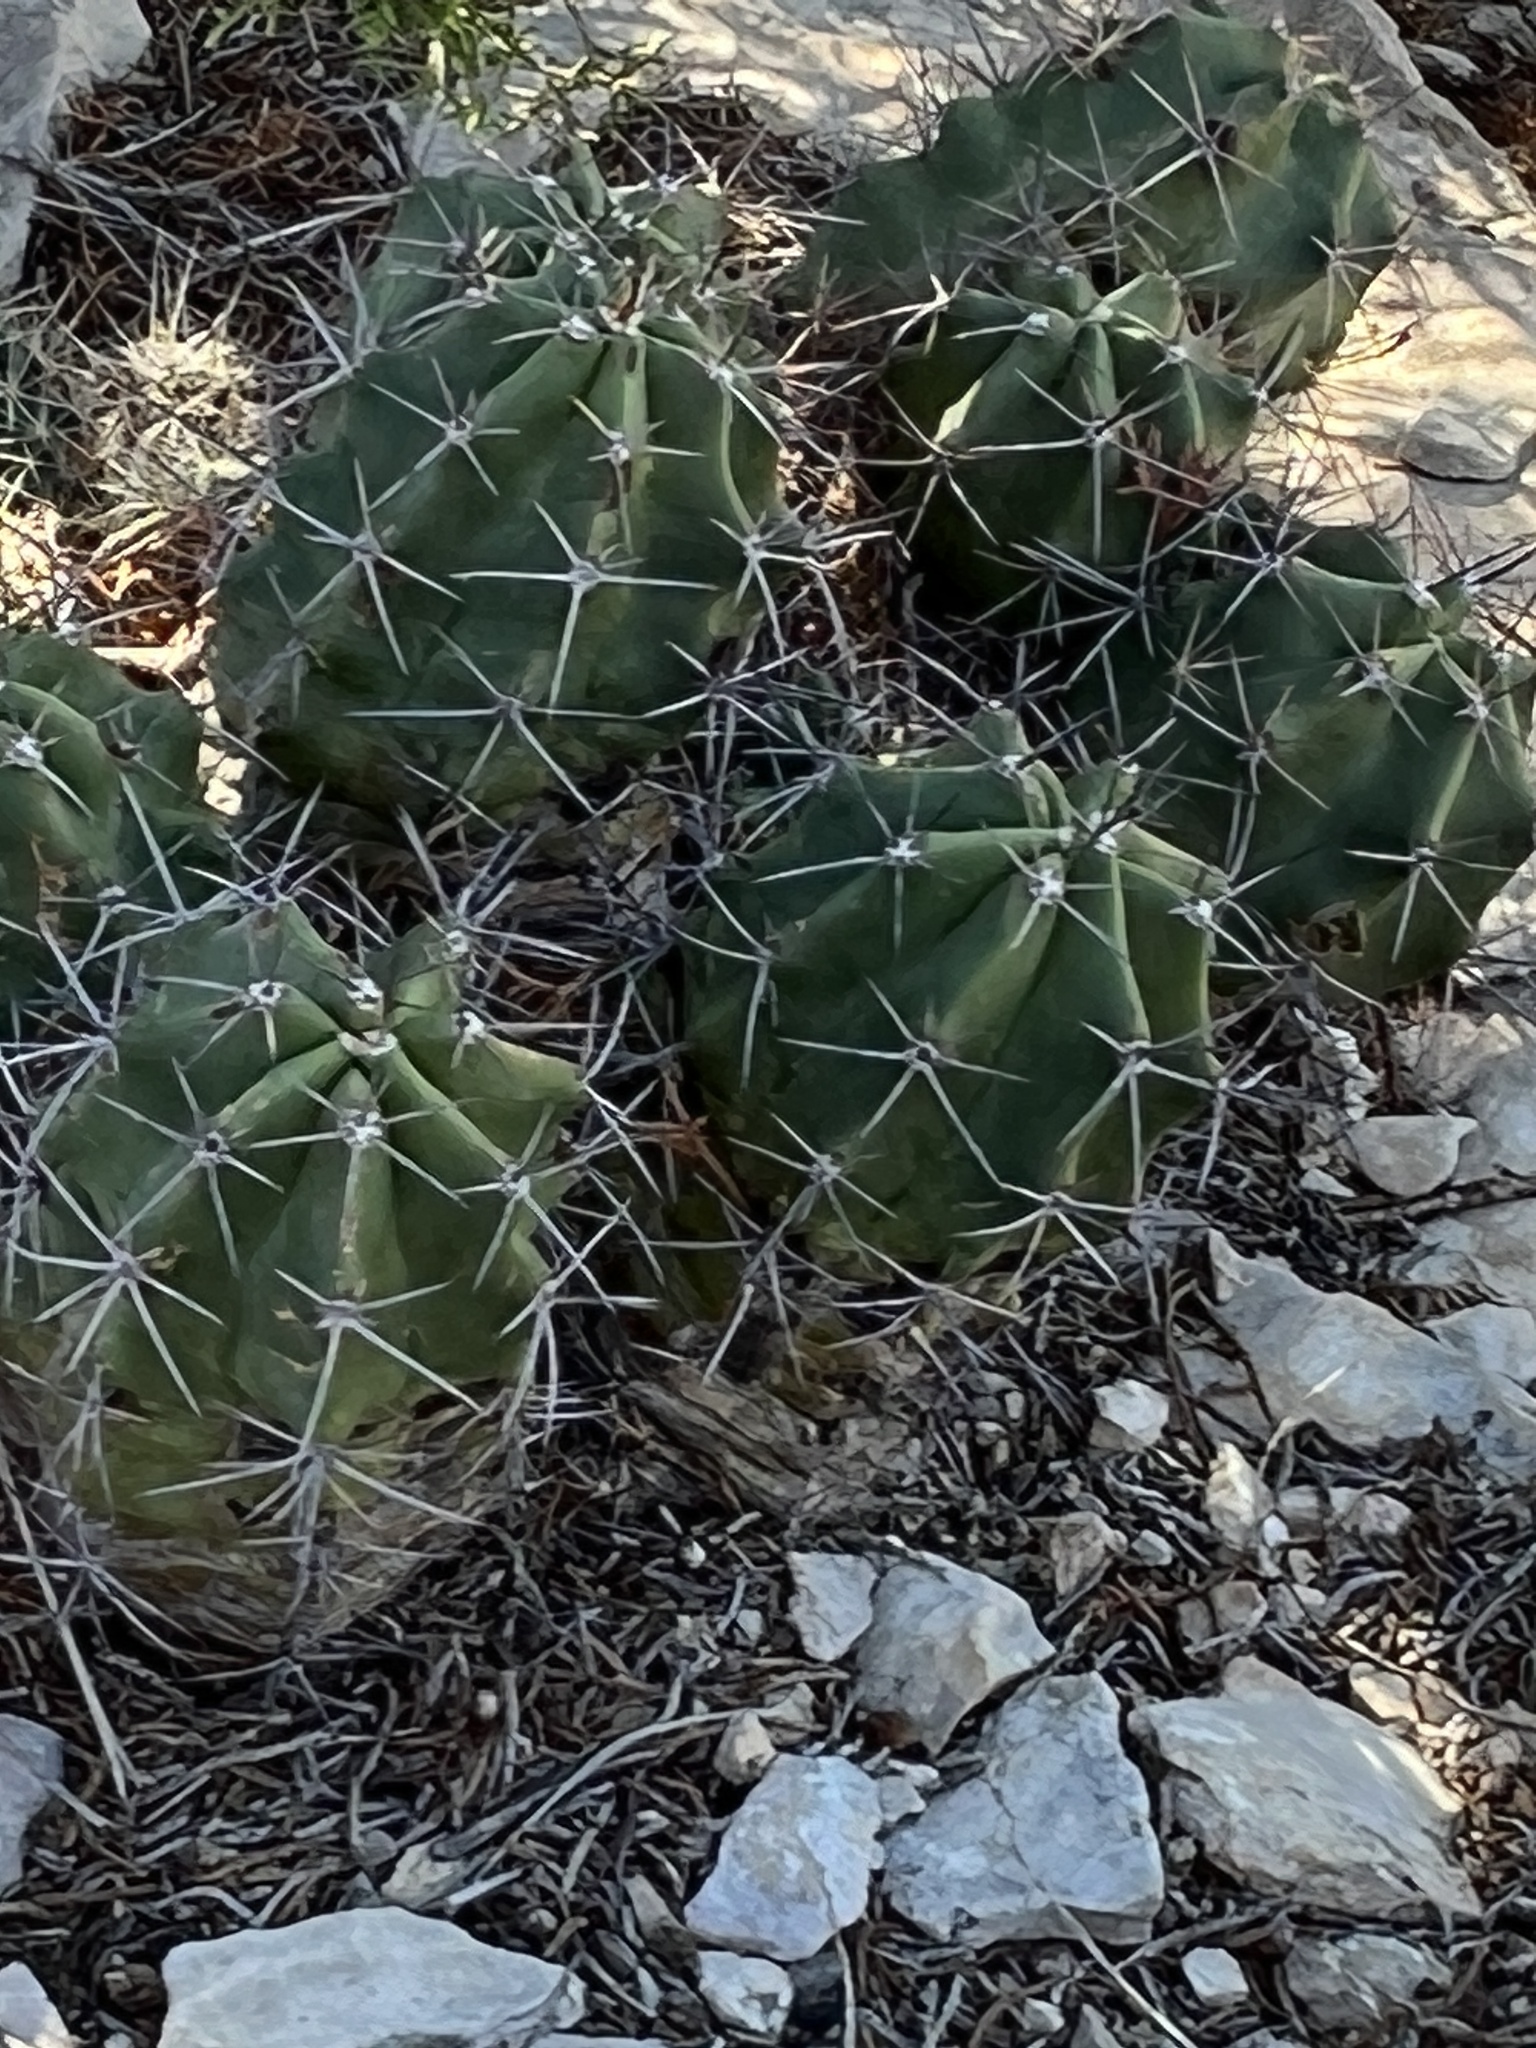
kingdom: Plantae
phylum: Tracheophyta
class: Magnoliopsida
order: Caryophyllales
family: Cactaceae
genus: Echinocereus
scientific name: Echinocereus coccineus
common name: Scarlet hedgehog cactus
